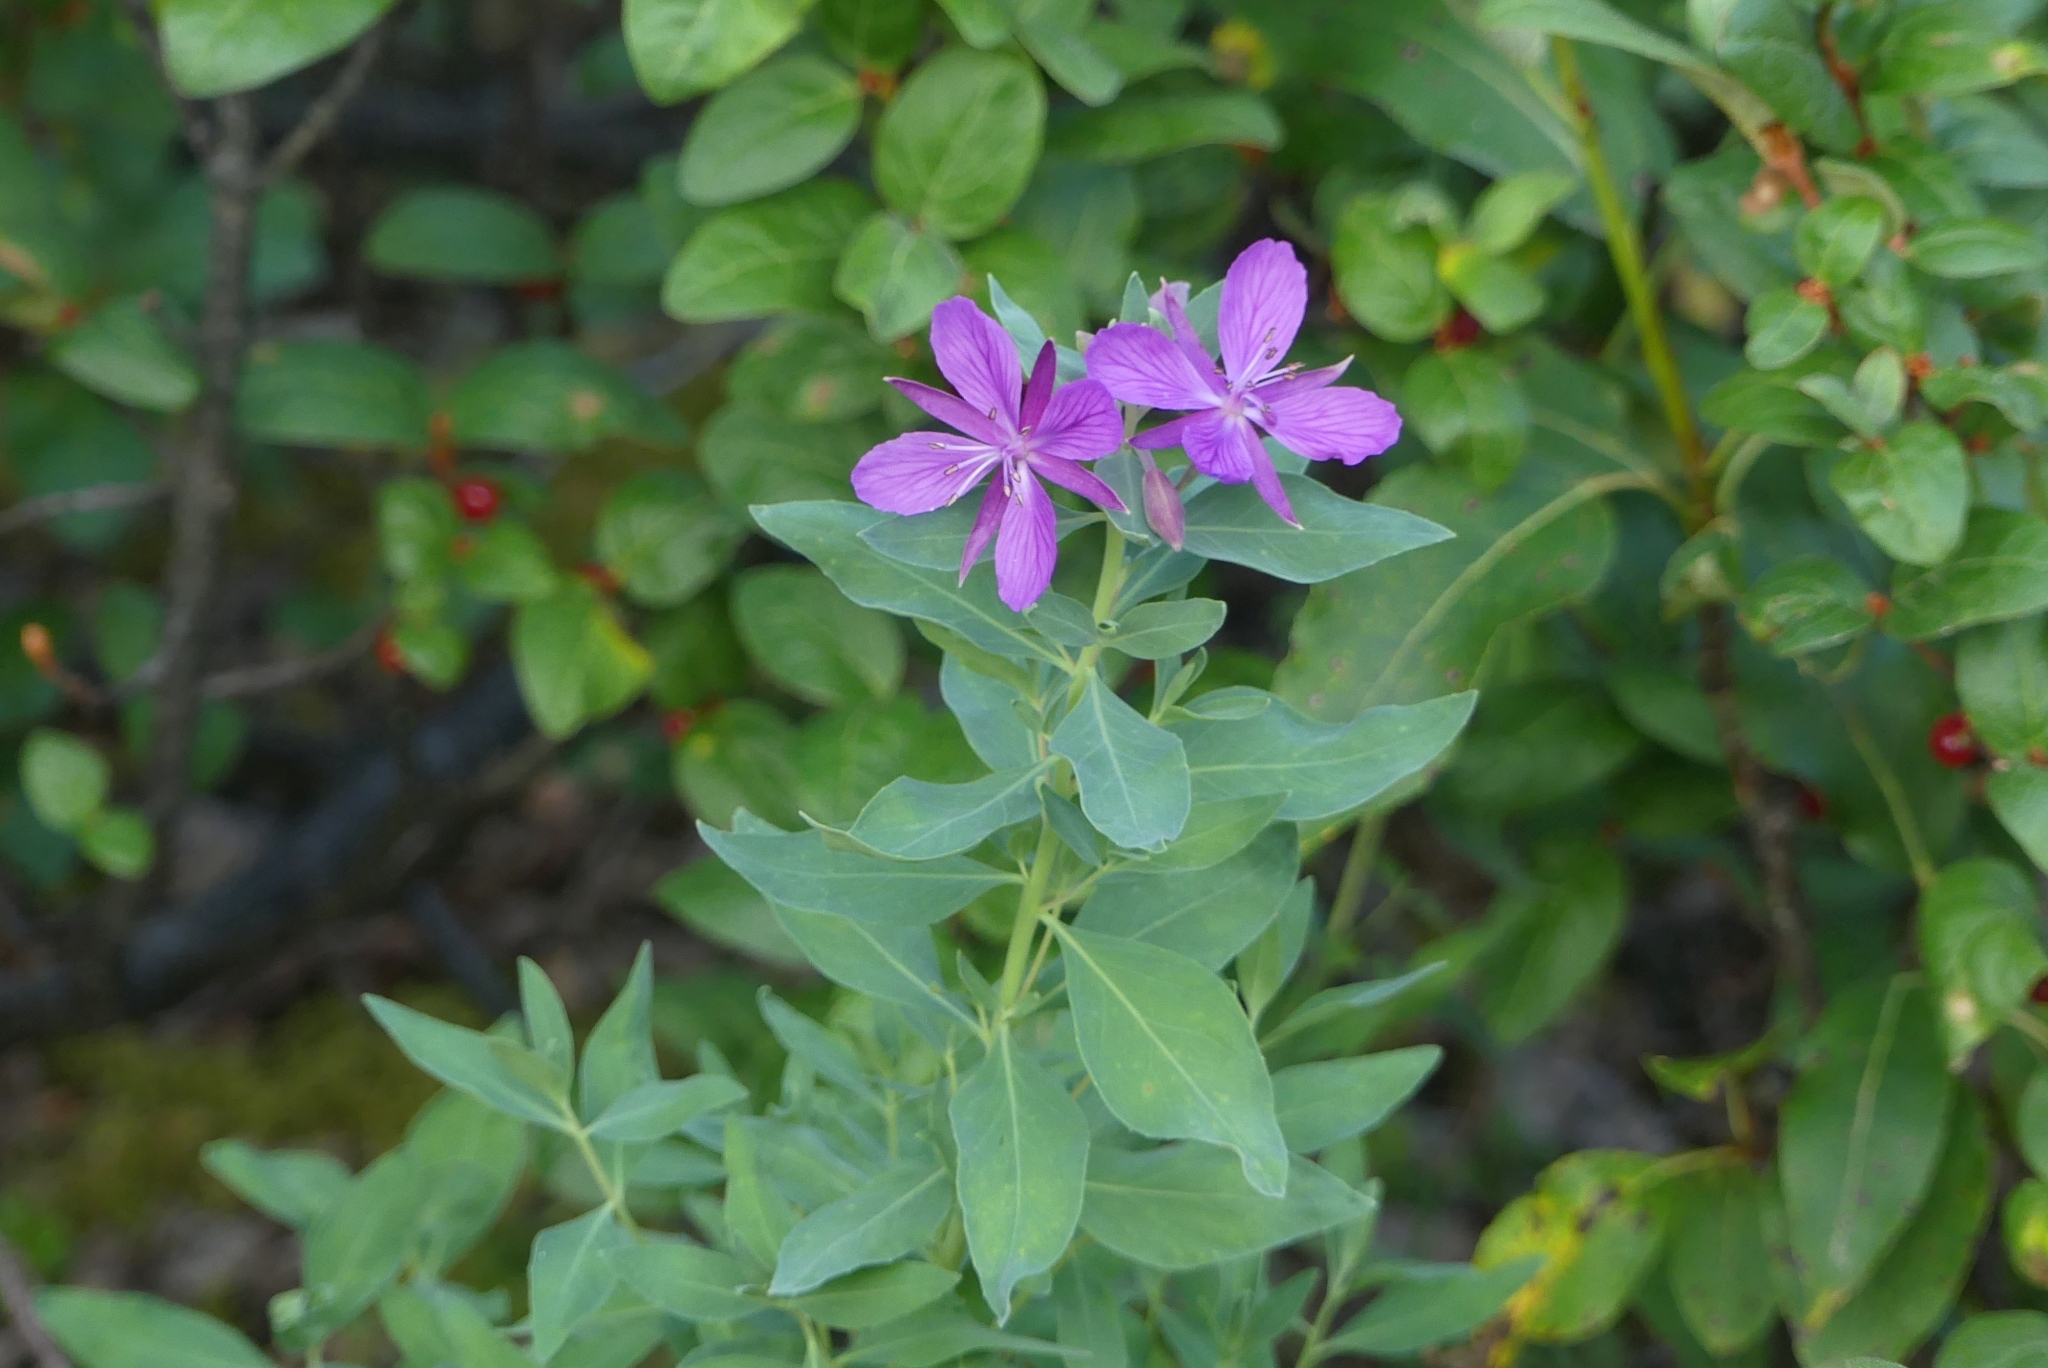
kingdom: Plantae
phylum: Tracheophyta
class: Magnoliopsida
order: Myrtales
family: Onagraceae
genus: Chamaenerion
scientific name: Chamaenerion latifolium
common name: Dwarf fireweed
